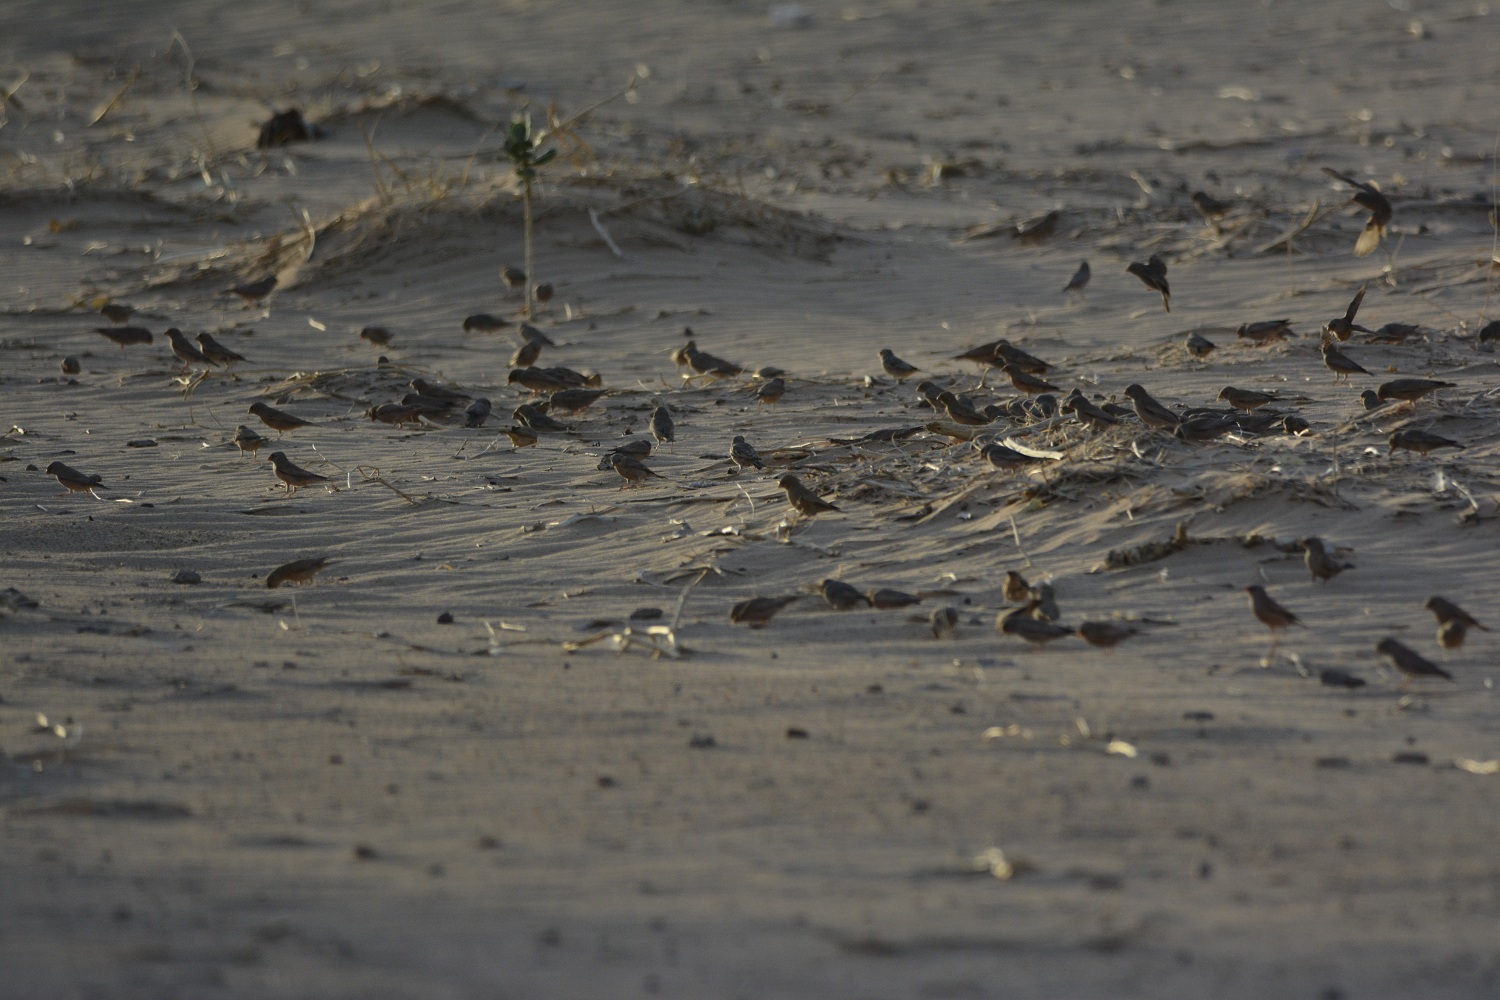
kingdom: Animalia
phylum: Chordata
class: Aves
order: Passeriformes
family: Fringillidae
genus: Bucanetes
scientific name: Bucanetes githagineus
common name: Trumpeter finch
